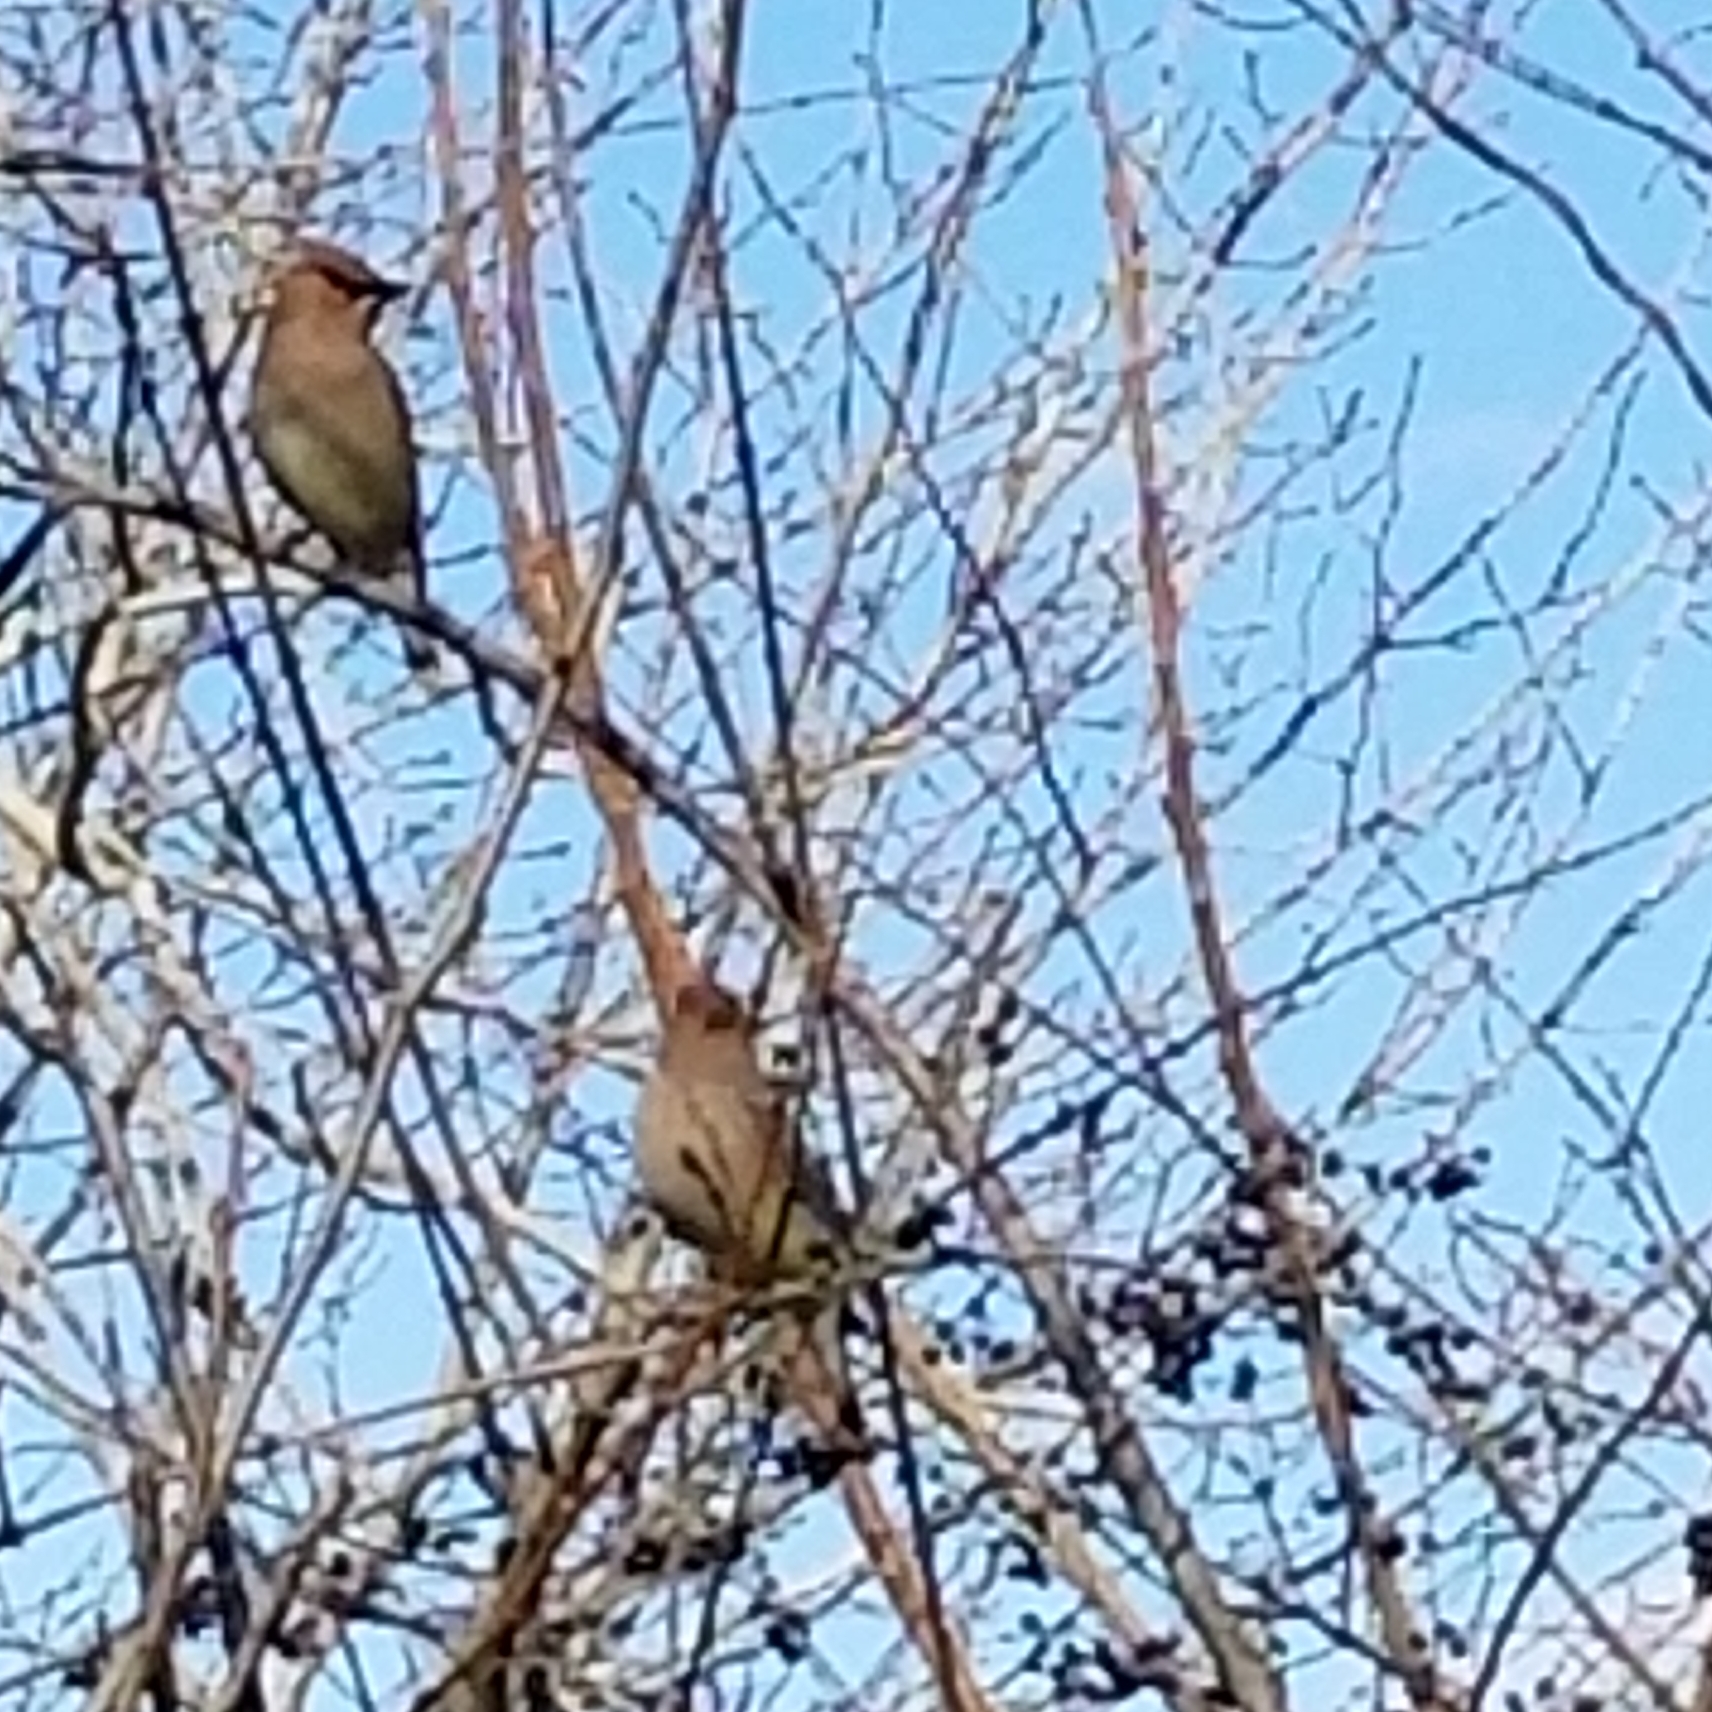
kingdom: Animalia
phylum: Chordata
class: Aves
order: Passeriformes
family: Bombycillidae
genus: Bombycilla
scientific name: Bombycilla cedrorum
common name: Cedar waxwing
